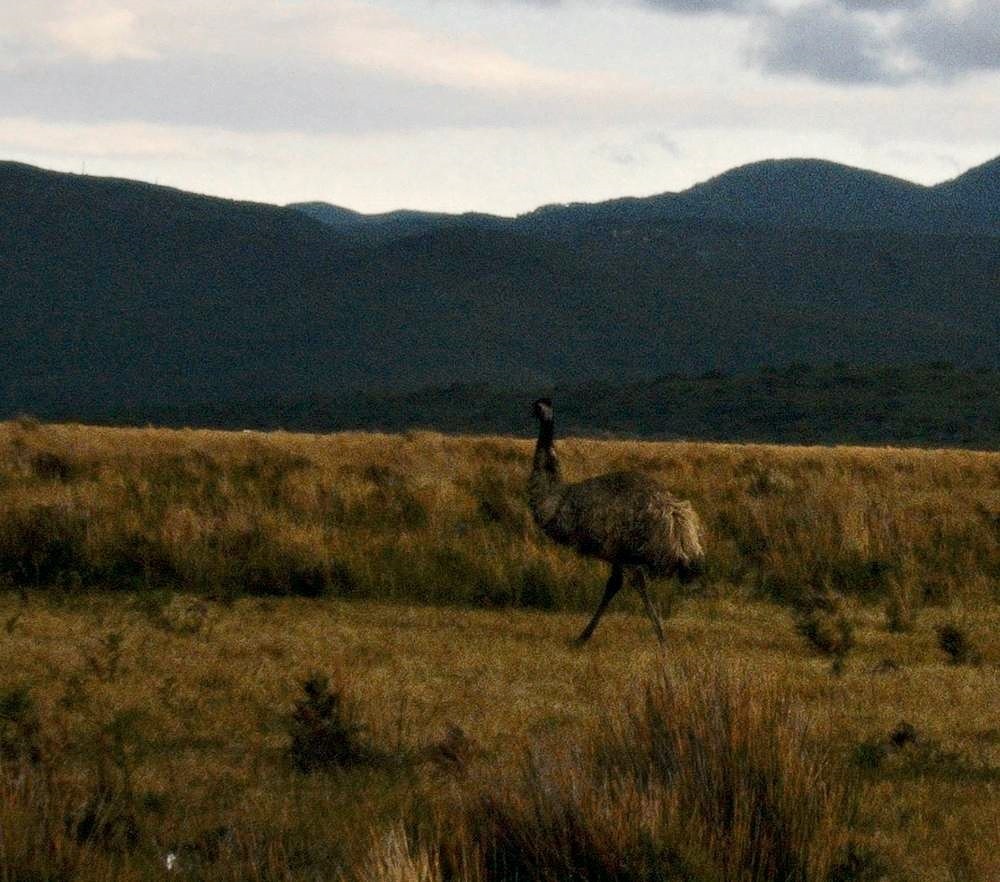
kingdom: Animalia
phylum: Chordata
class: Aves
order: Casuariiformes
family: Dromaiidae
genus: Dromaius
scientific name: Dromaius novaehollandiae
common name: Emu
